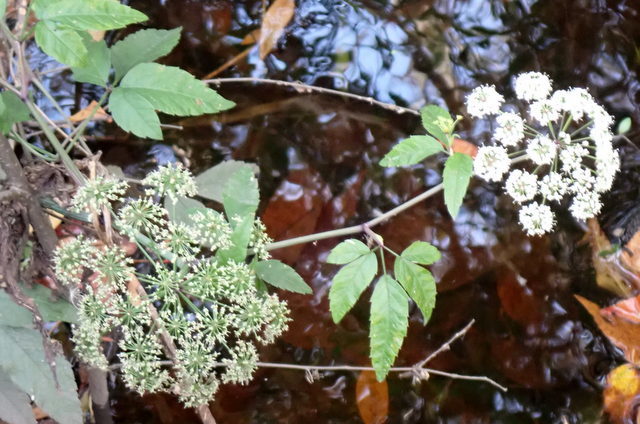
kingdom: Plantae
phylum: Tracheophyta
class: Magnoliopsida
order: Apiales
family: Apiaceae
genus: Cicuta
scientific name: Cicuta maculata
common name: Spotted cowbane
